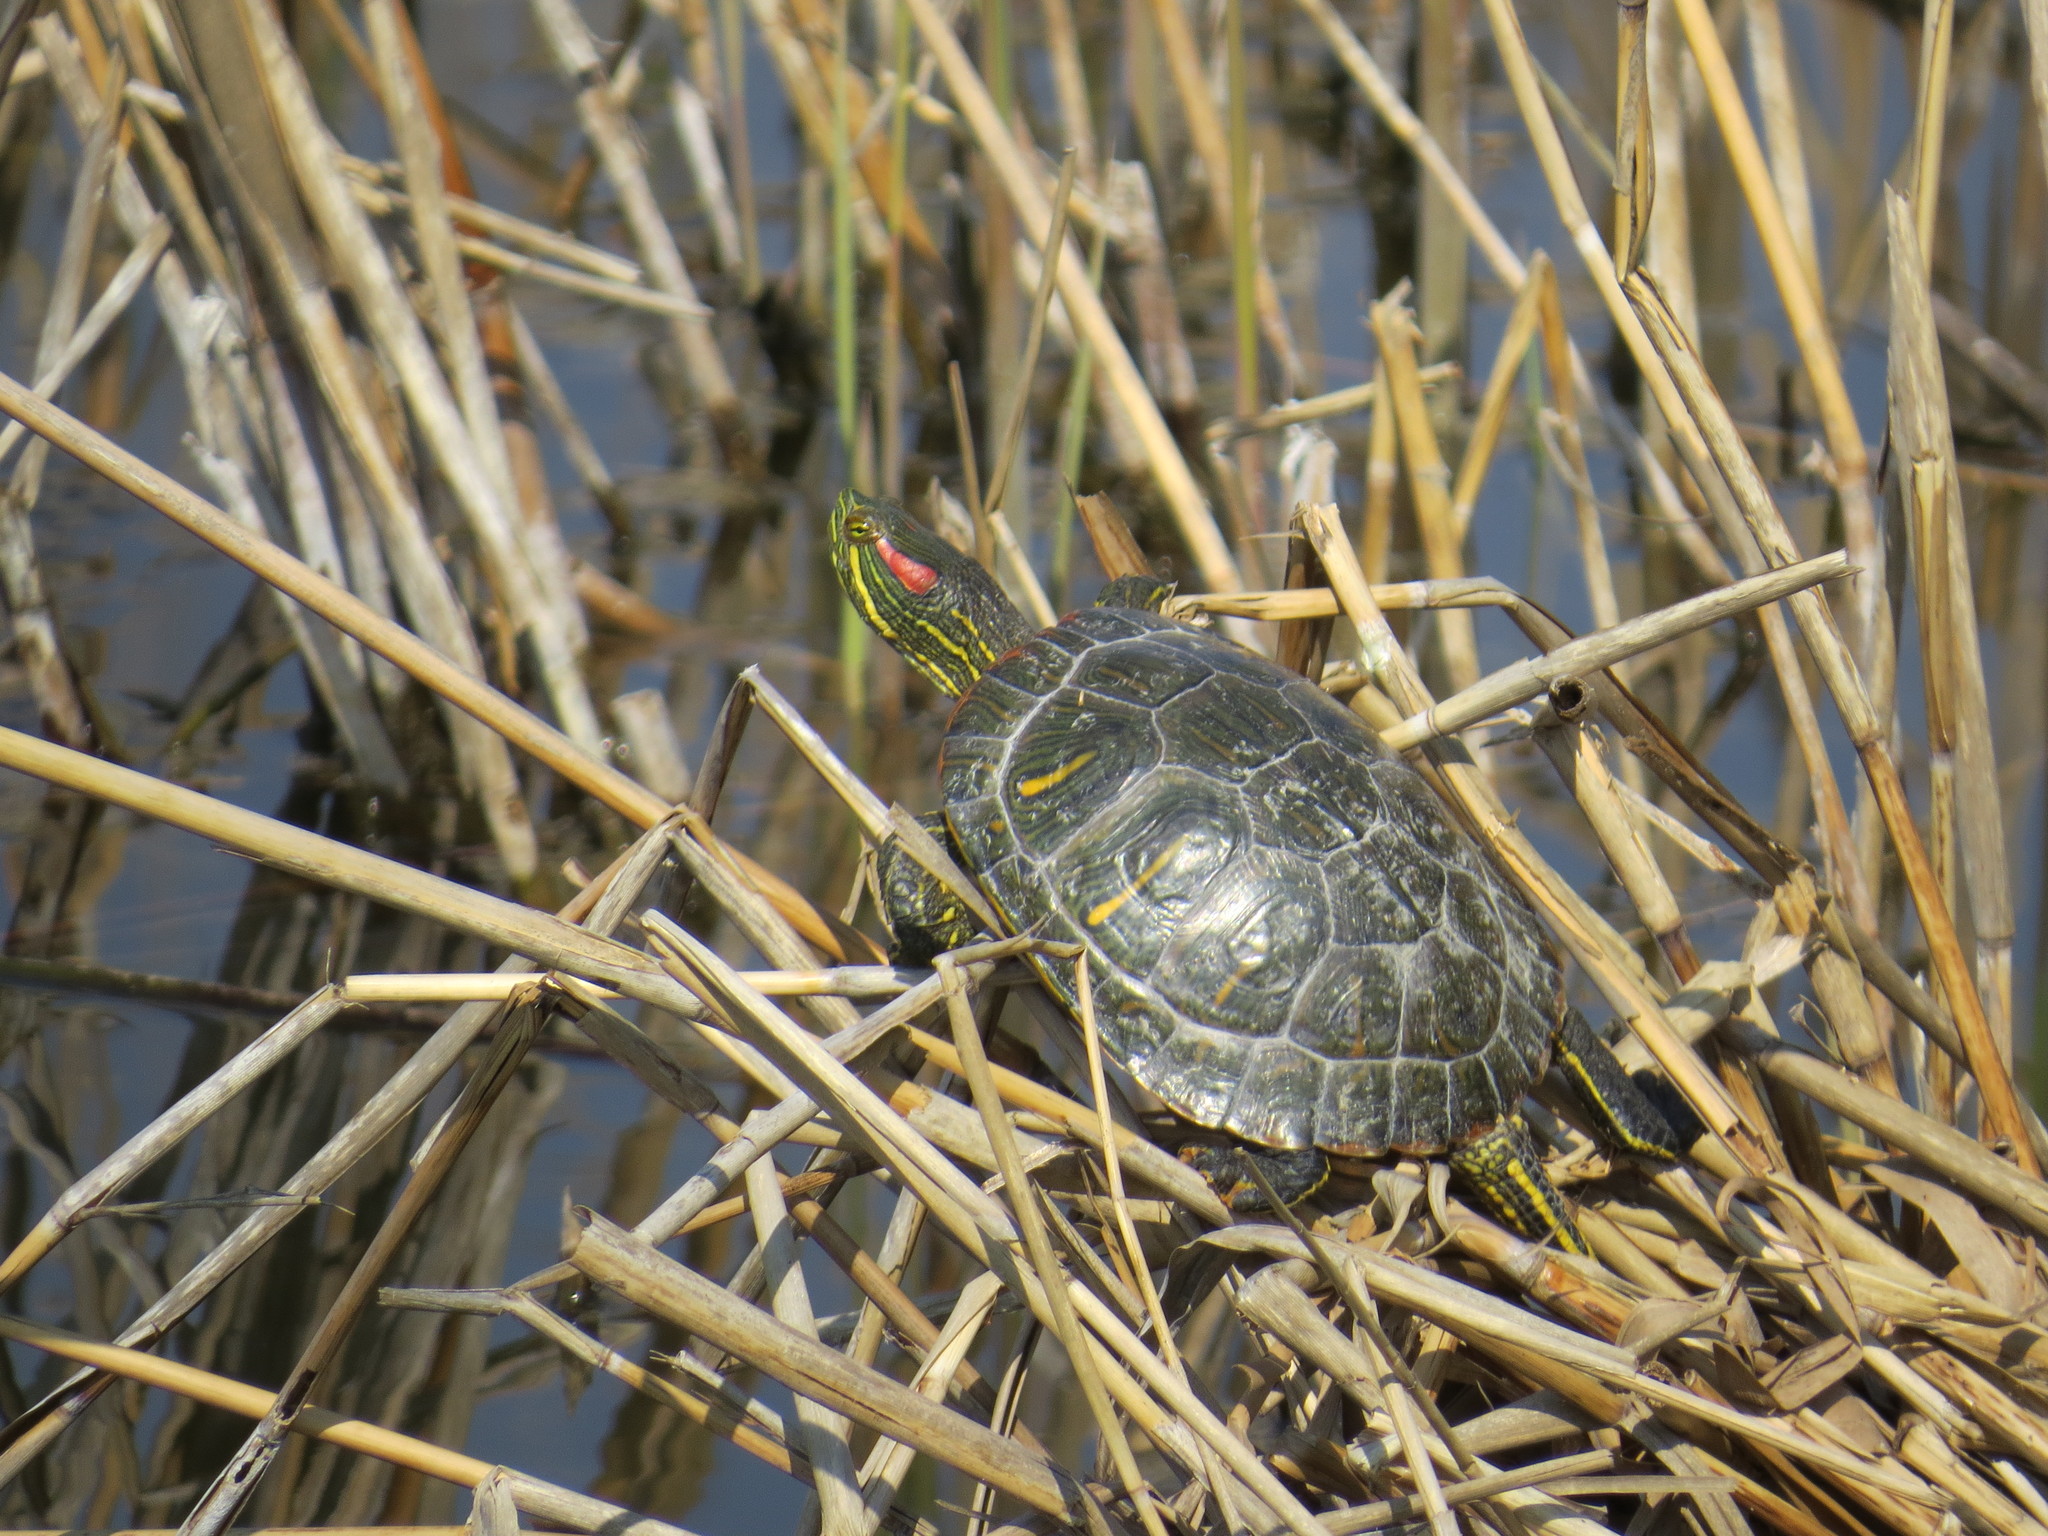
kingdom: Animalia
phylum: Chordata
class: Testudines
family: Emydidae
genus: Trachemys
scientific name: Trachemys scripta
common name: Slider
